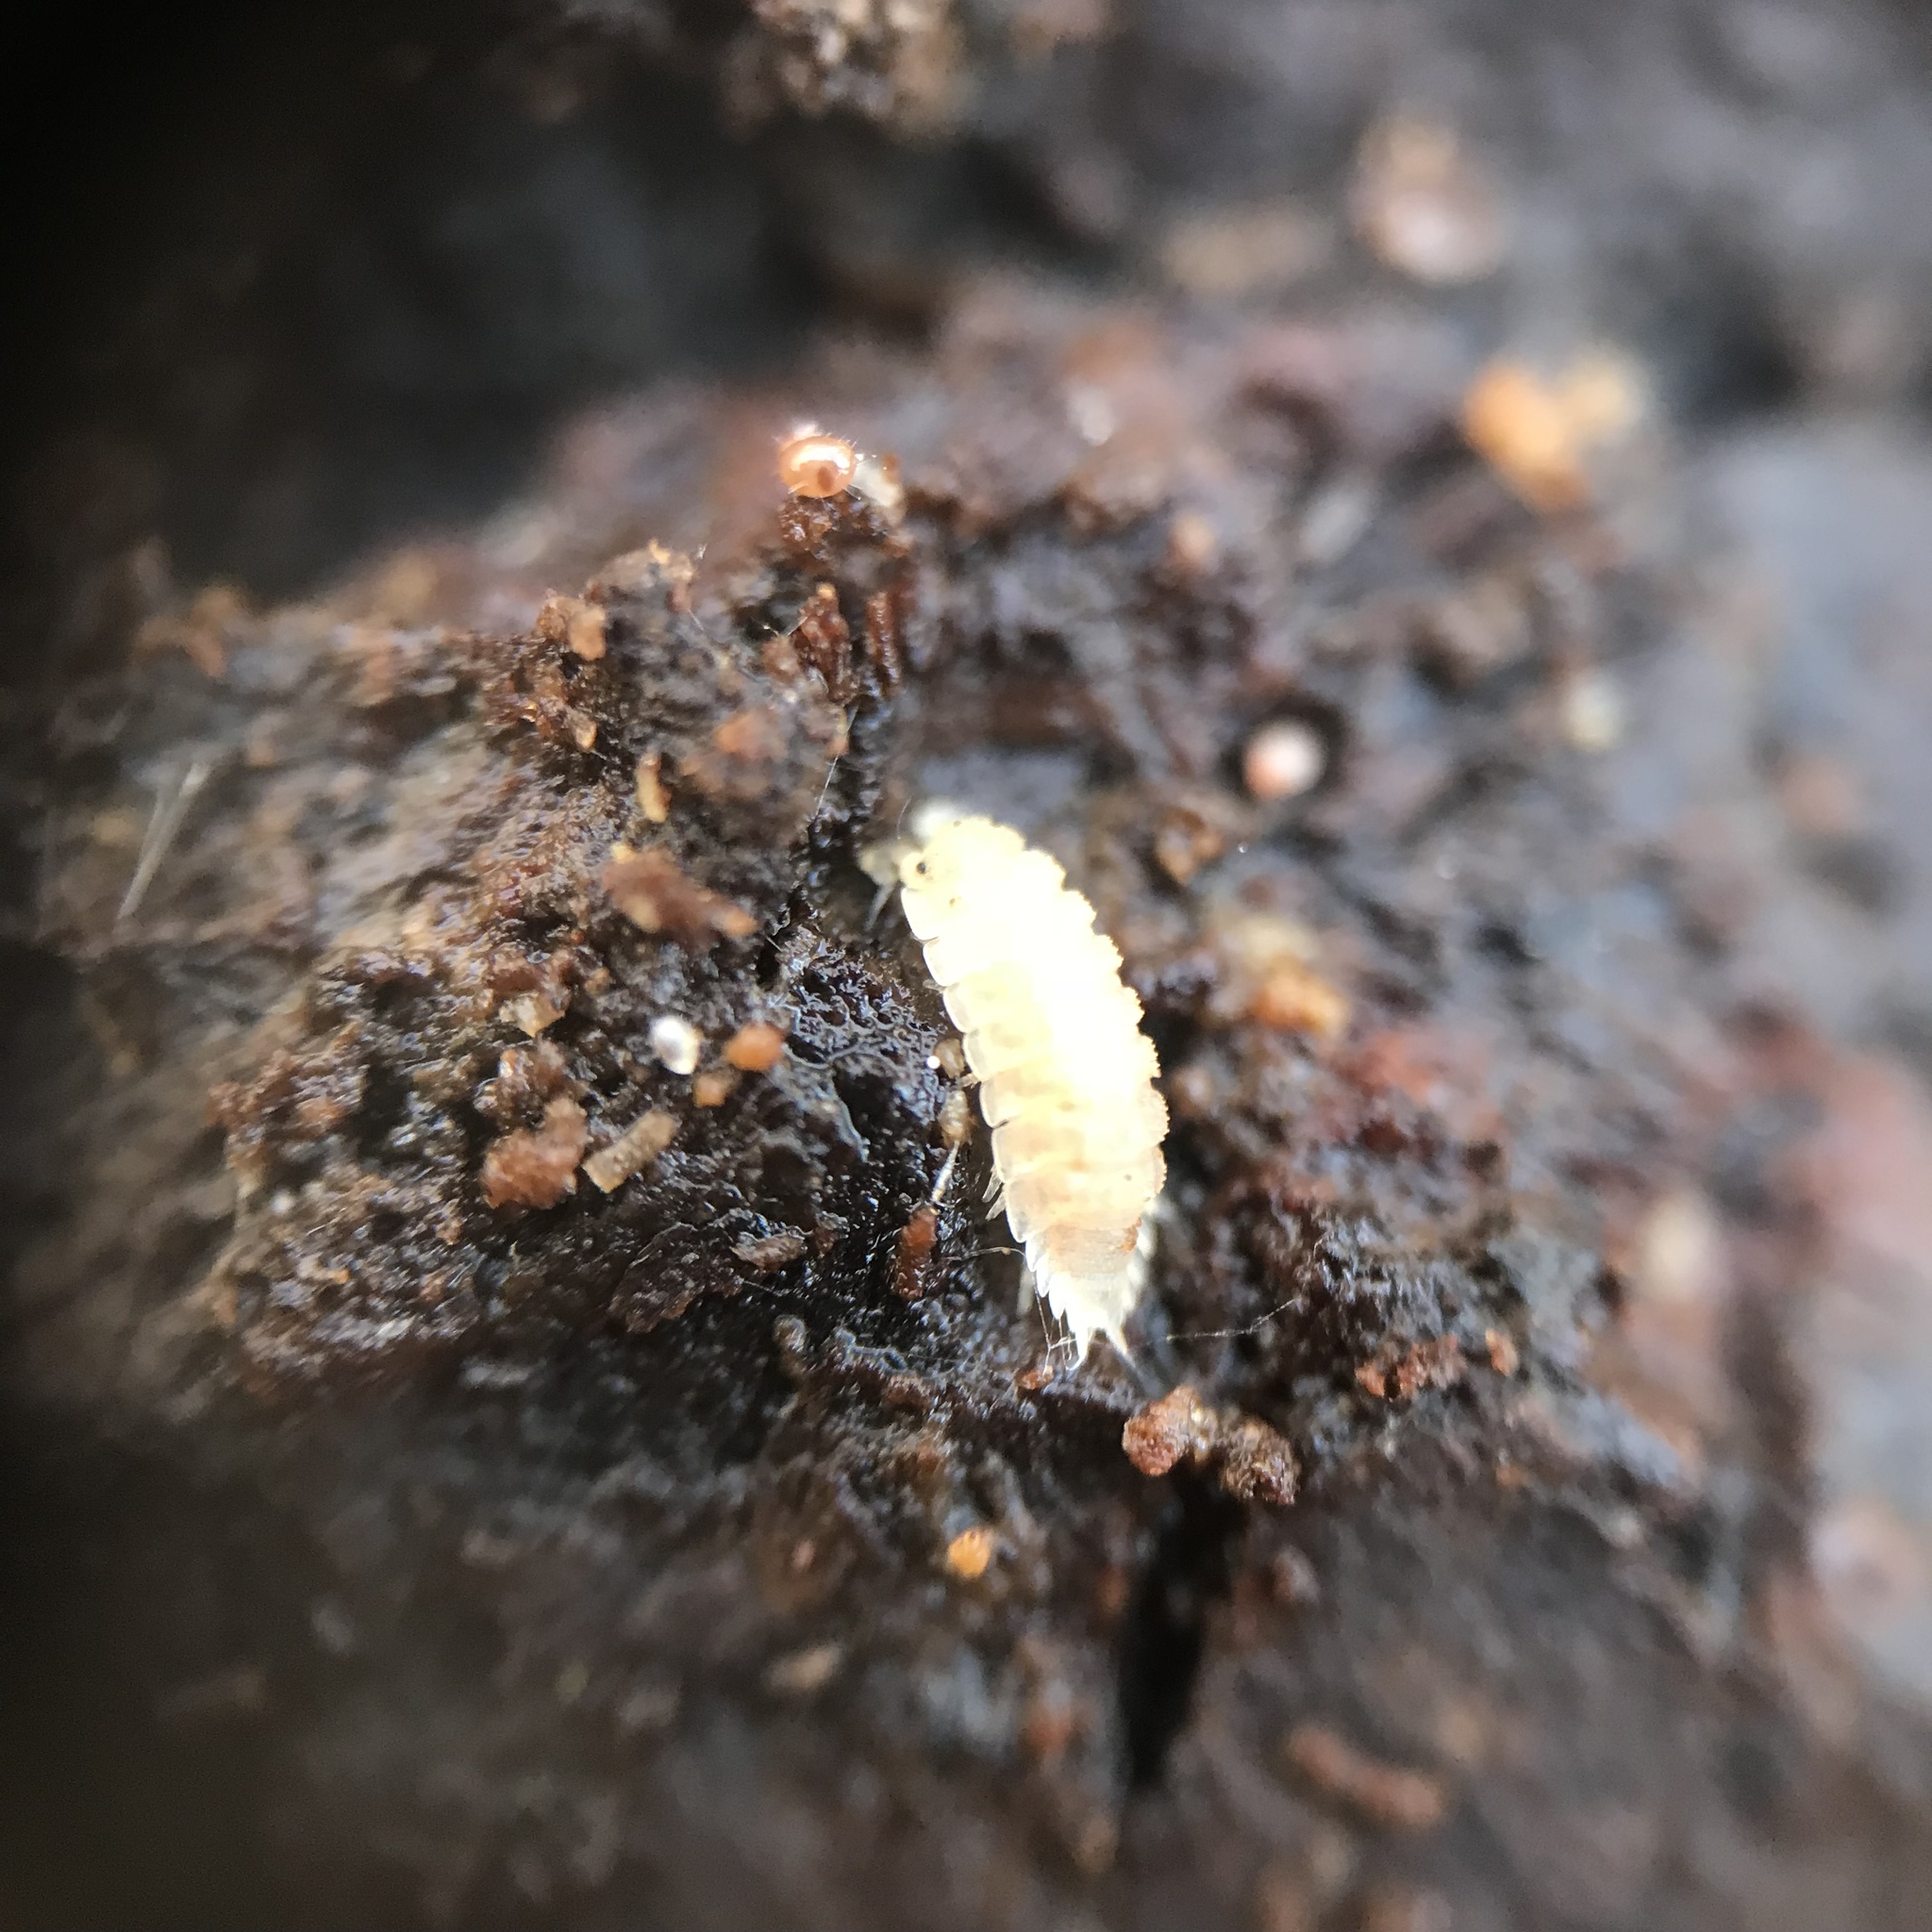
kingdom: Animalia
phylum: Arthropoda
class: Malacostraca
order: Isopoda
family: Trichoniscidae
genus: Haplophthalmus
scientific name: Haplophthalmus danicus
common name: Pillbug
